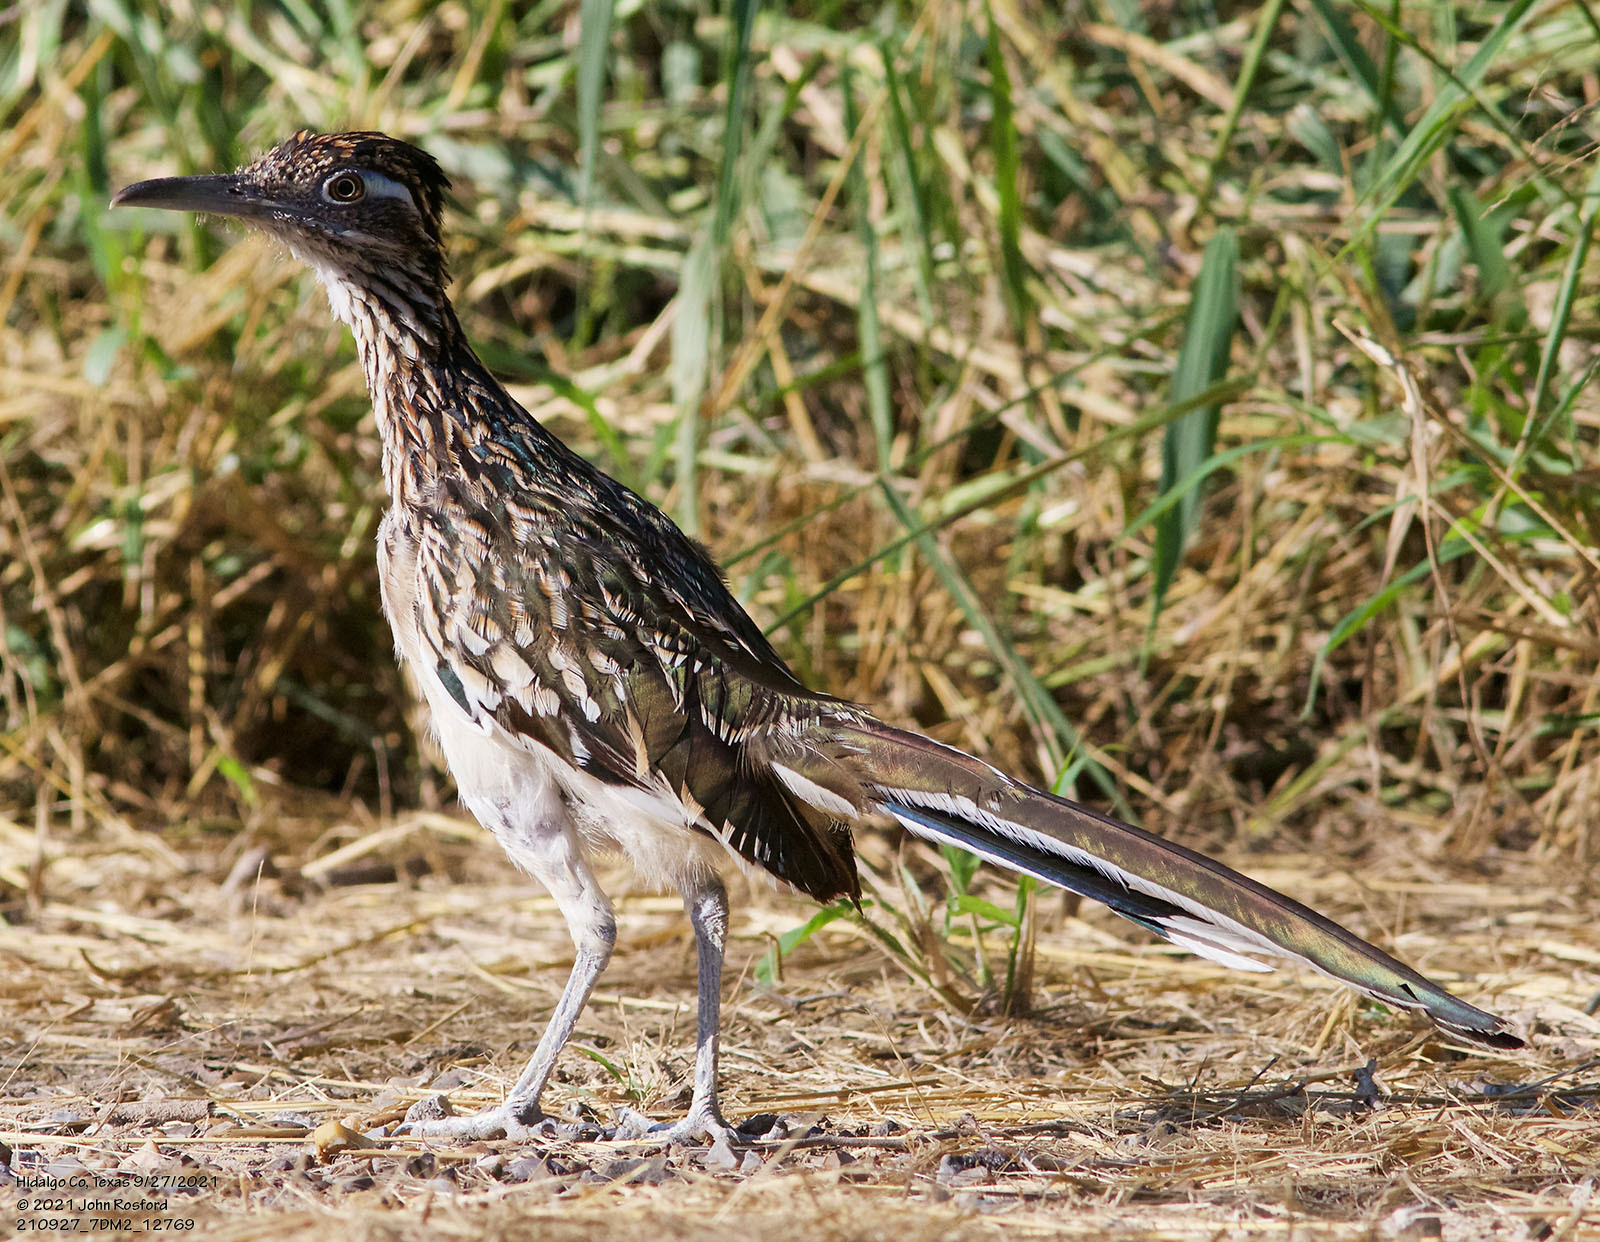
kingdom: Animalia
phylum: Chordata
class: Aves
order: Cuculiformes
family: Cuculidae
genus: Geococcyx
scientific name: Geococcyx californianus
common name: Greater roadrunner
